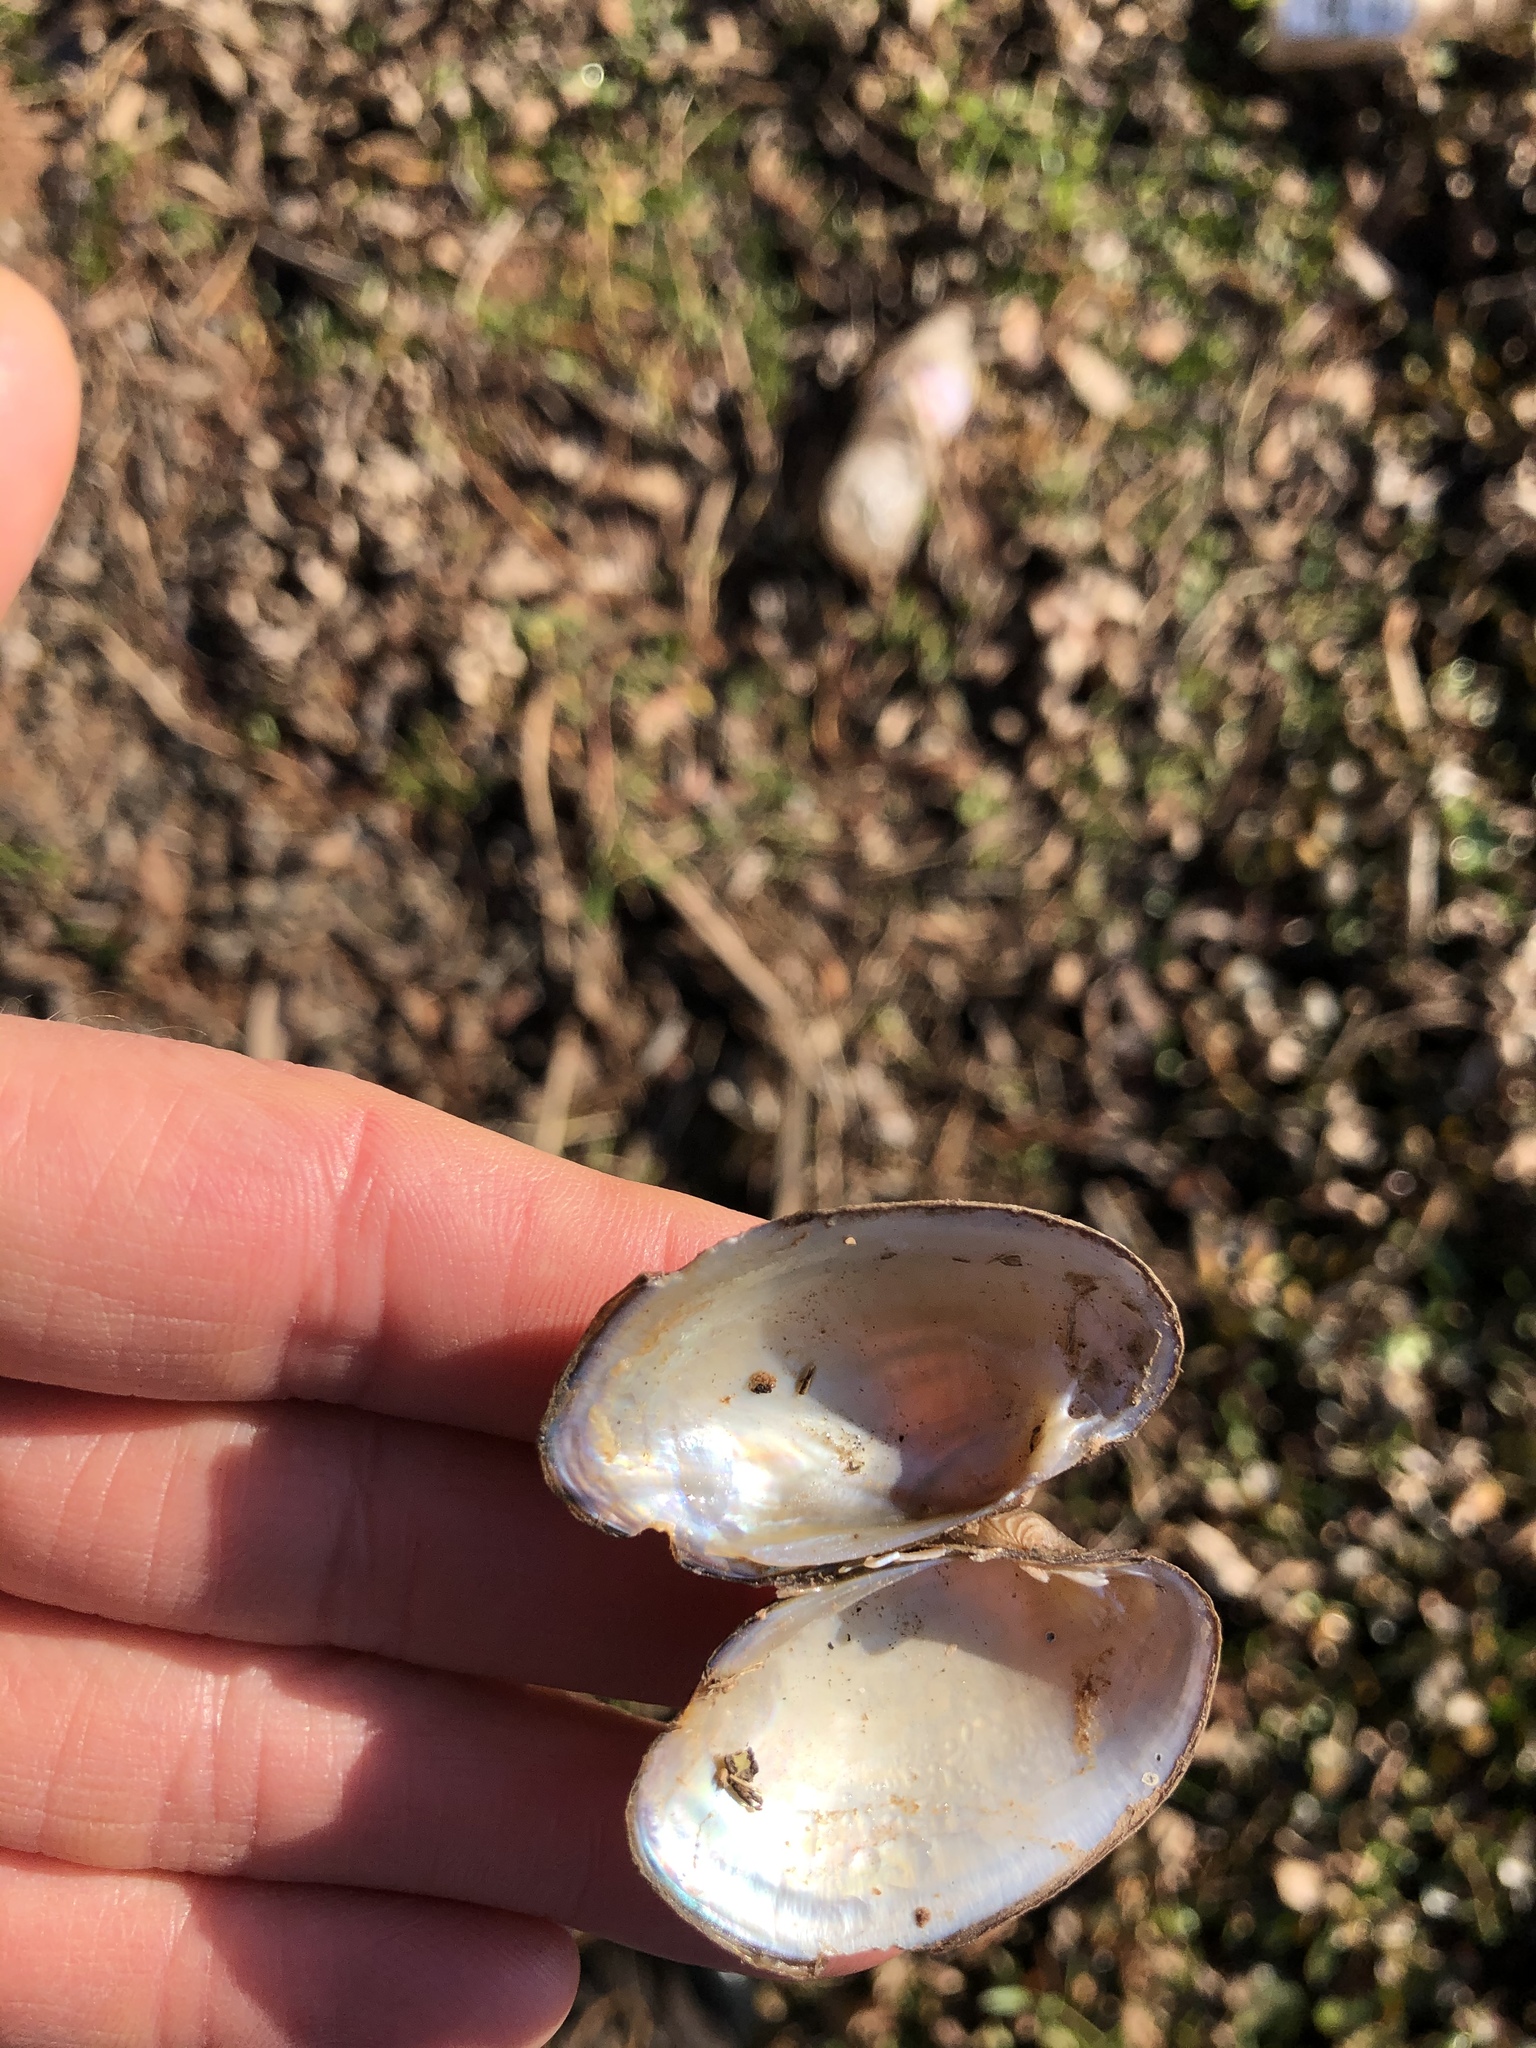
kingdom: Animalia
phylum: Mollusca
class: Bivalvia
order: Unionida
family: Unionidae
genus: Toxolasma
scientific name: Toxolasma texasiense
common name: Texas lilliput
